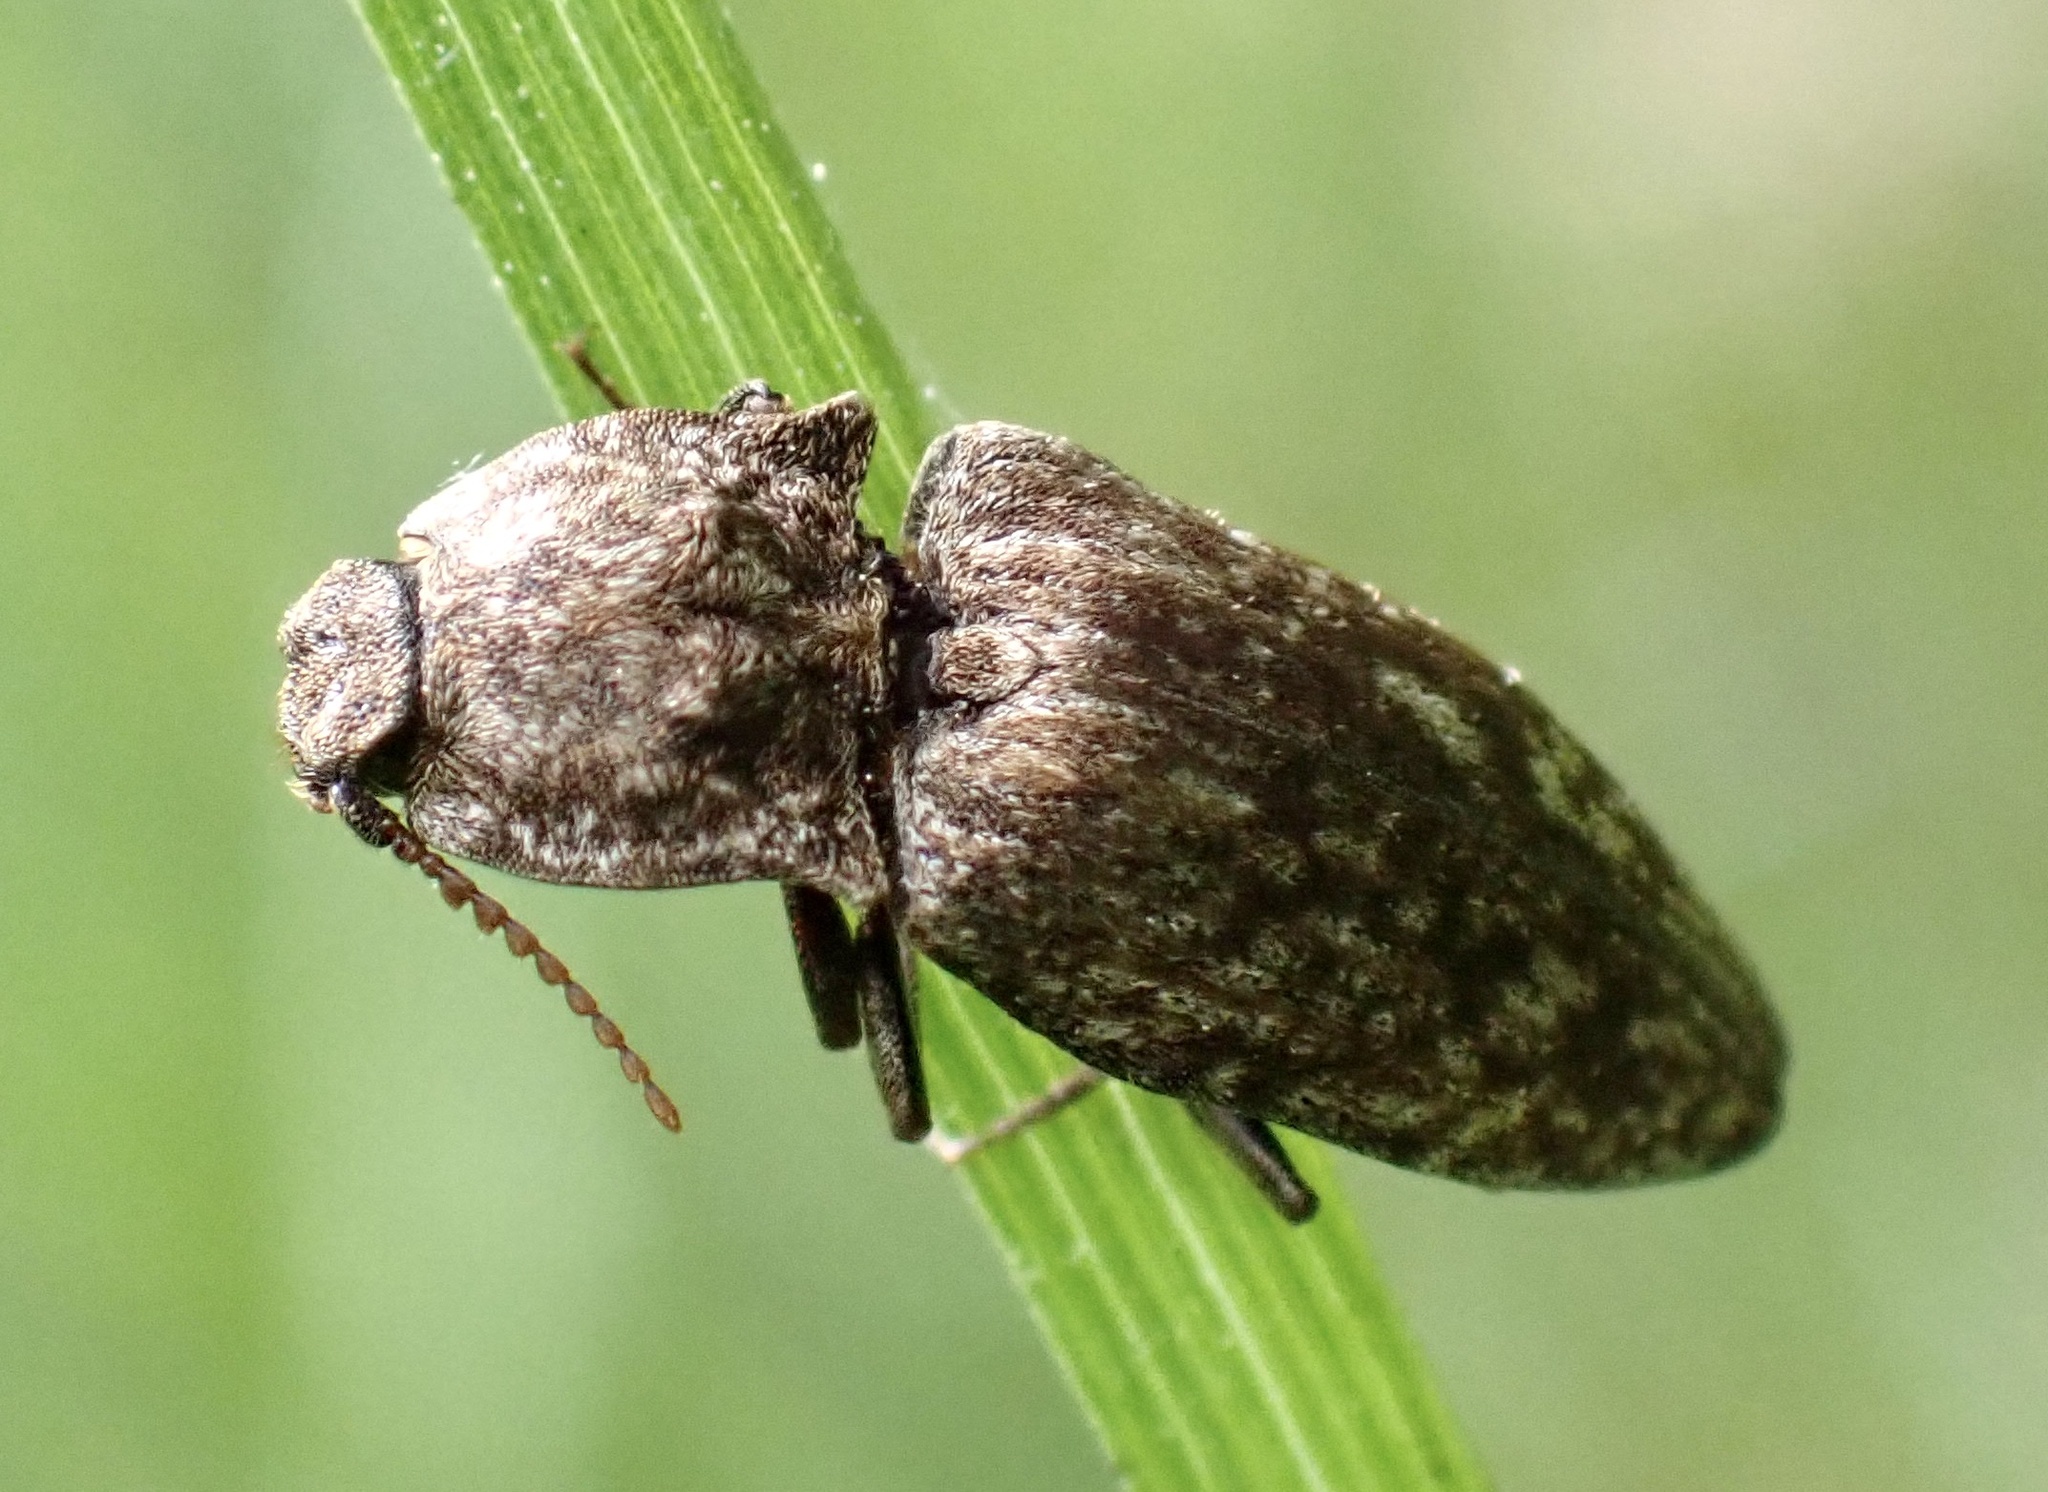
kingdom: Animalia
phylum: Arthropoda
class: Insecta
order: Coleoptera
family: Elateridae
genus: Agrypnus
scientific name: Agrypnus murinus
